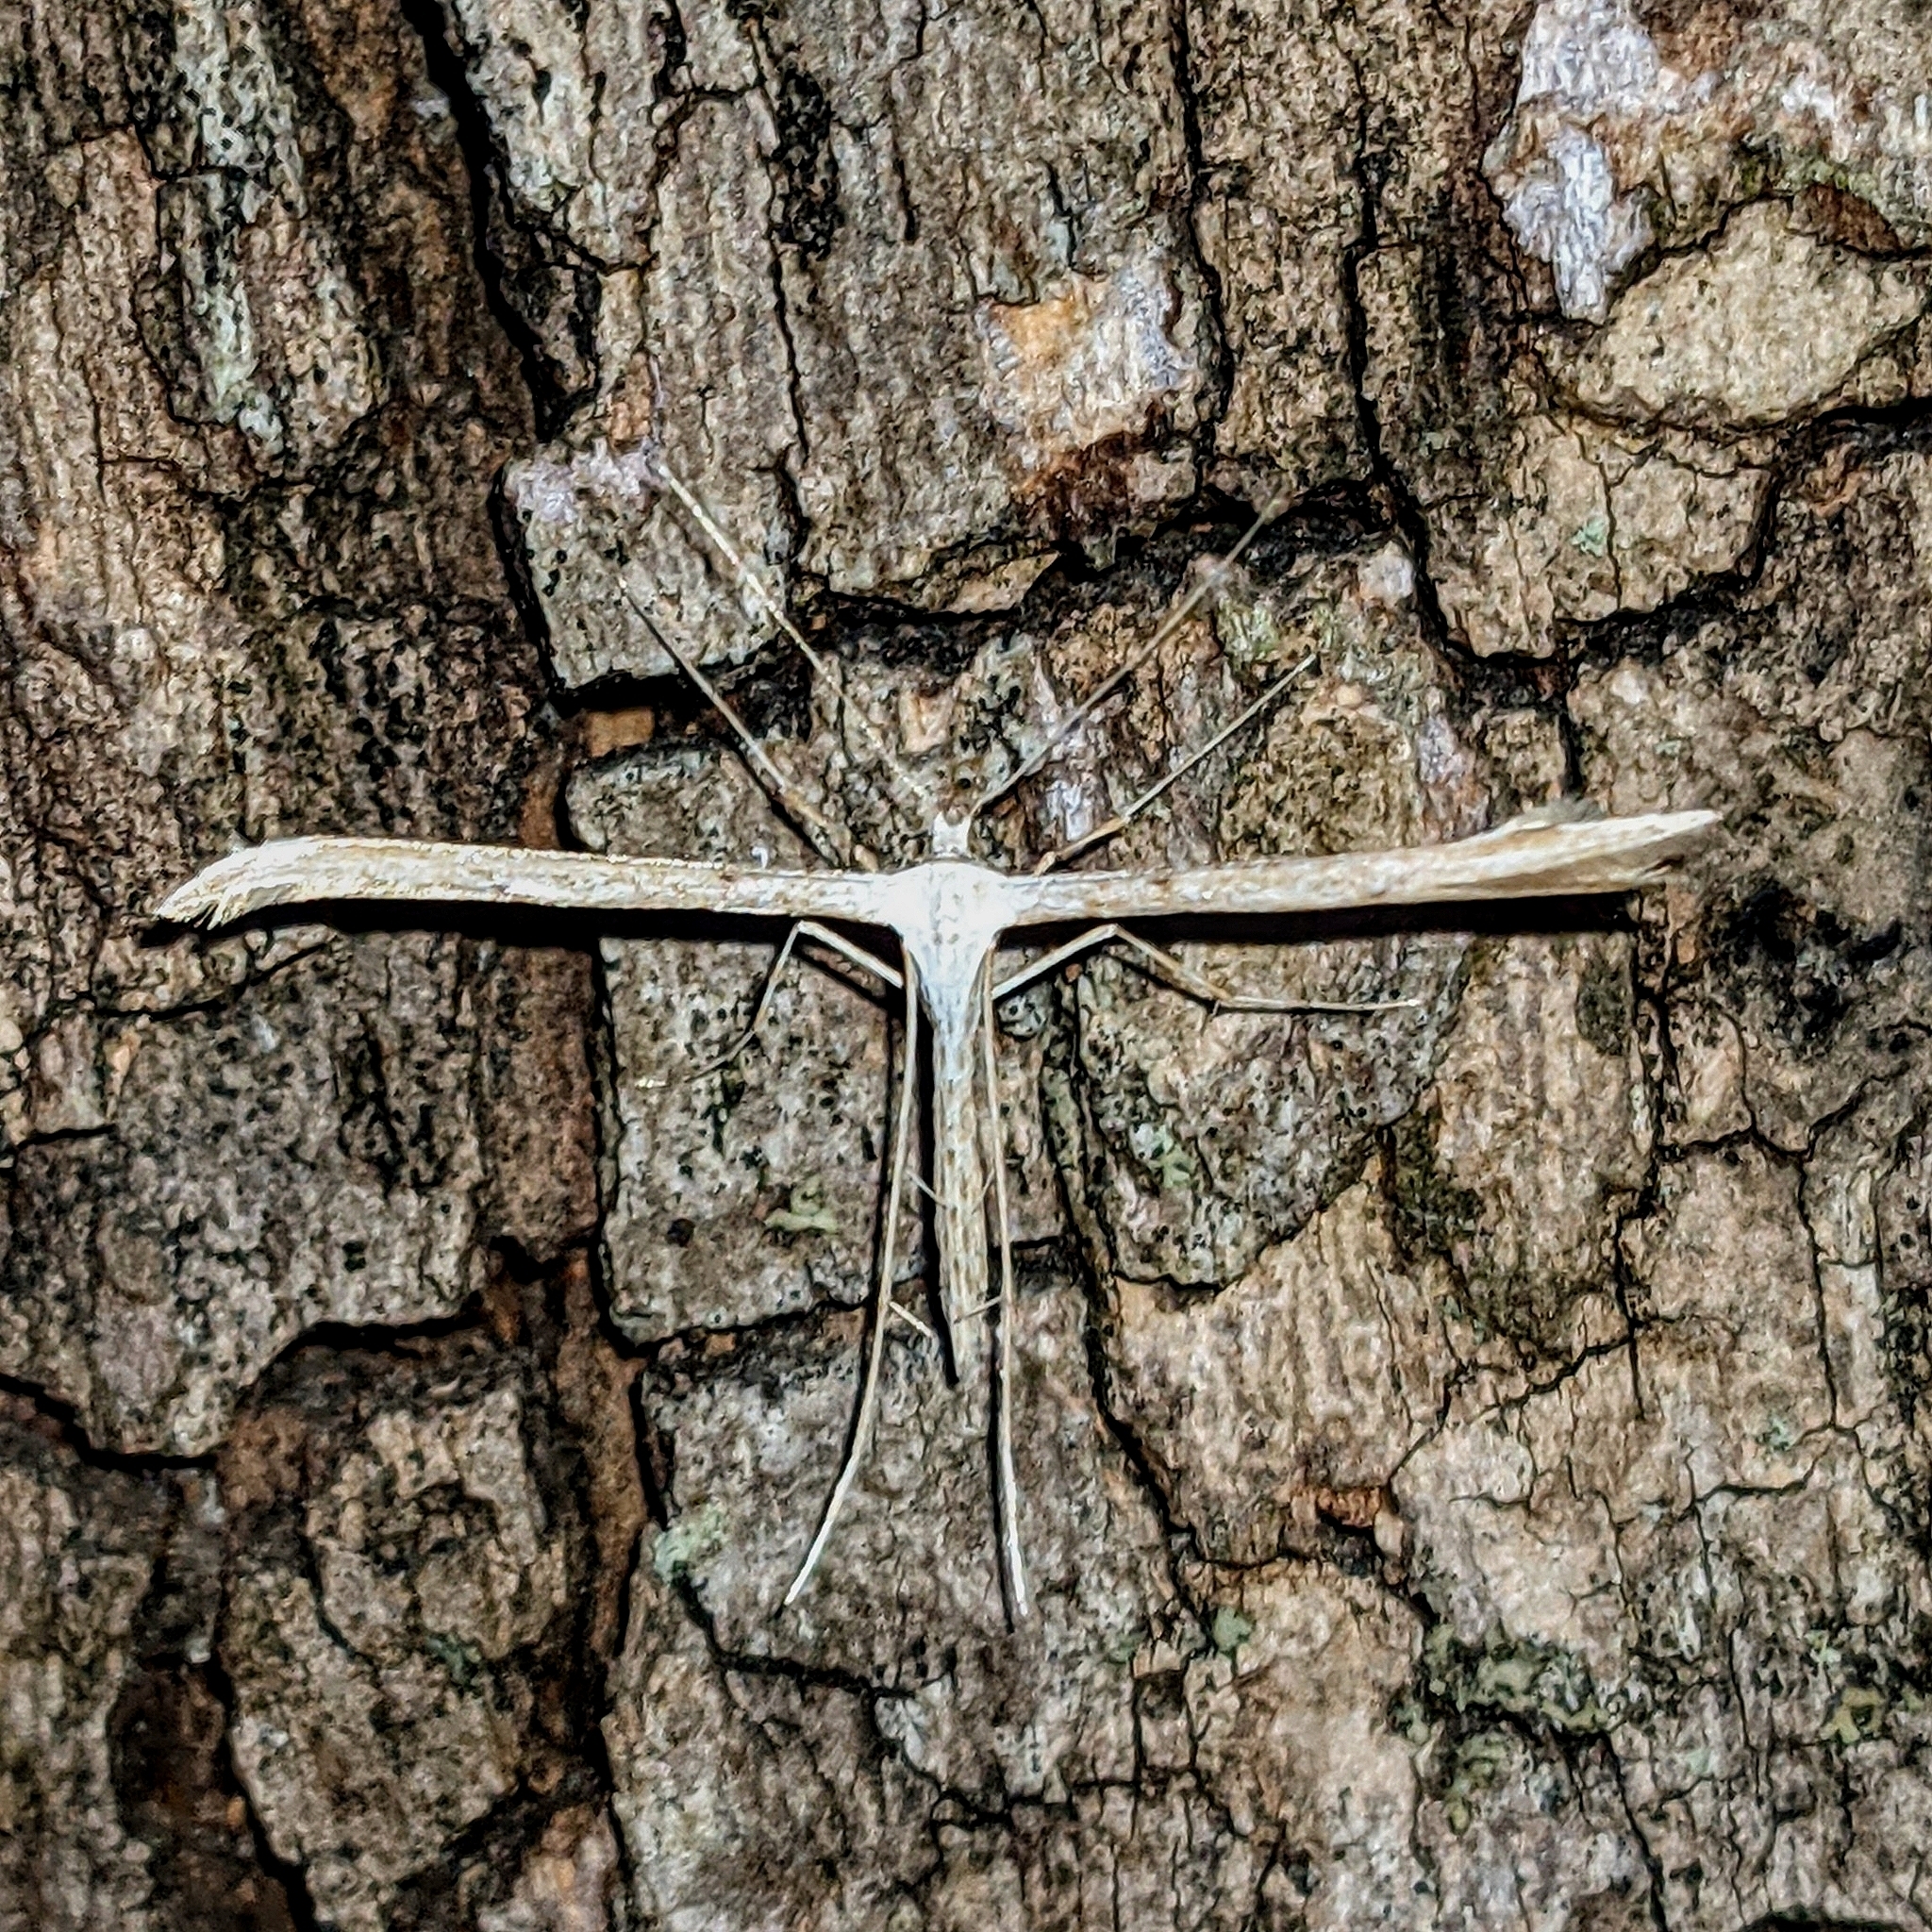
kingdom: Animalia
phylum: Arthropoda
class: Insecta
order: Lepidoptera
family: Pterophoridae
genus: Emmelina
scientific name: Emmelina monodactyla
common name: Common plume
